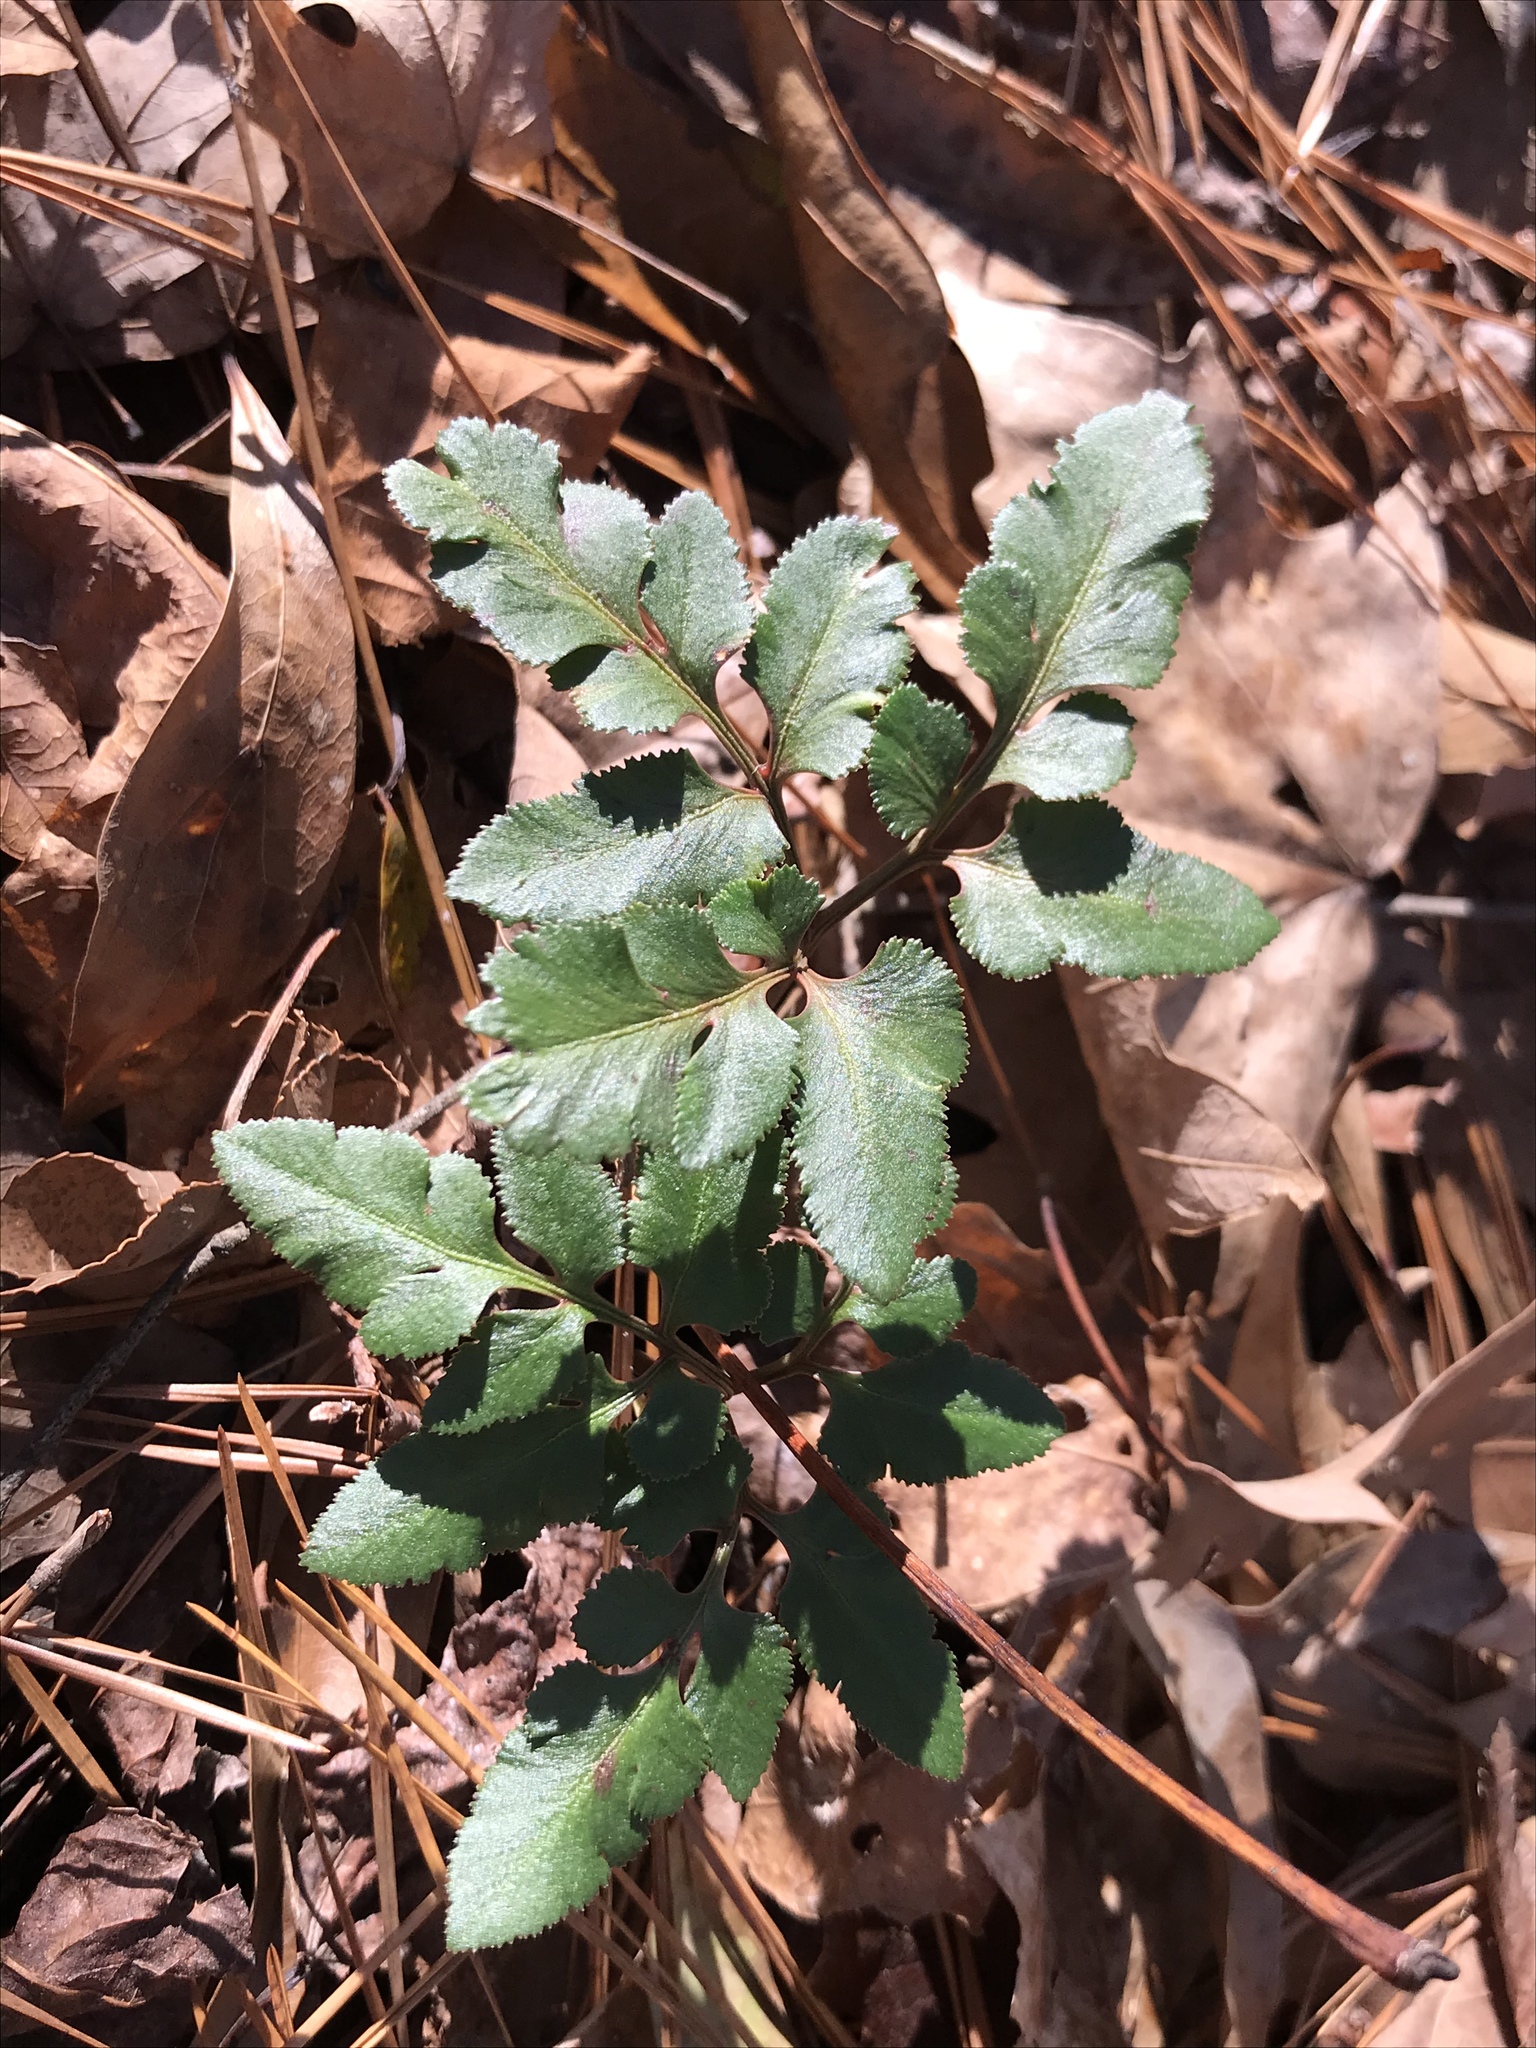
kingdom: Plantae
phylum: Tracheophyta
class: Polypodiopsida
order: Ophioglossales
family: Ophioglossaceae
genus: Sceptridium
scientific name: Sceptridium biternatum
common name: Sparse-lobed grapefern
